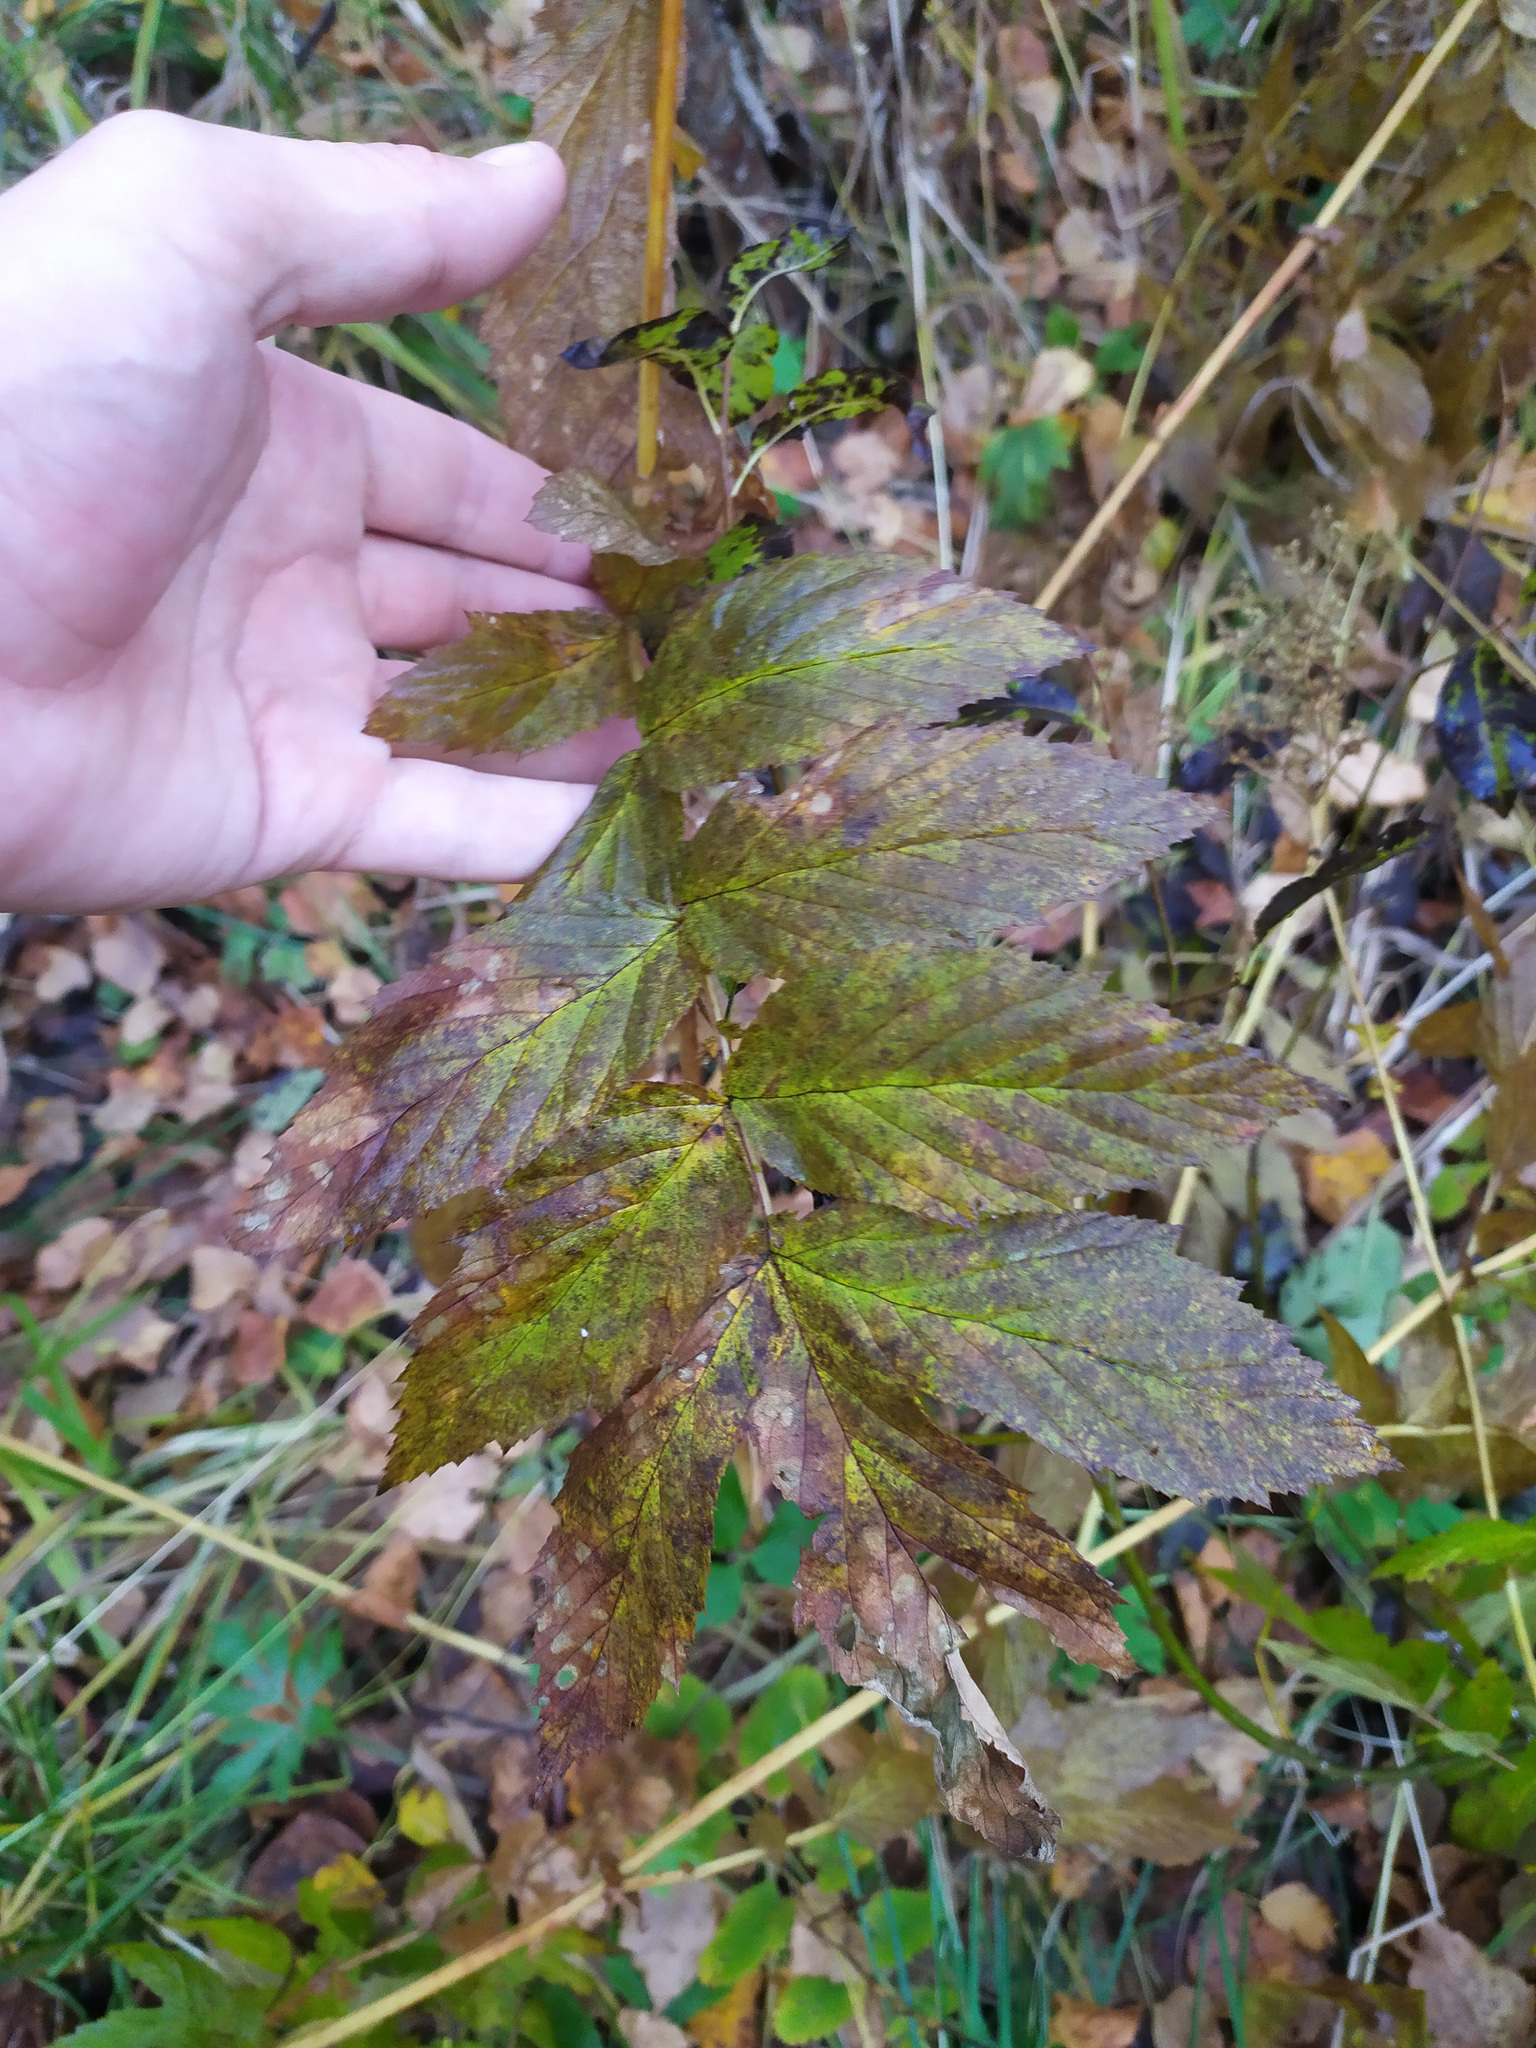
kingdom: Plantae
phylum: Tracheophyta
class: Magnoliopsida
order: Rosales
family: Rosaceae
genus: Filipendula
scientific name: Filipendula ulmaria
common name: Meadowsweet
